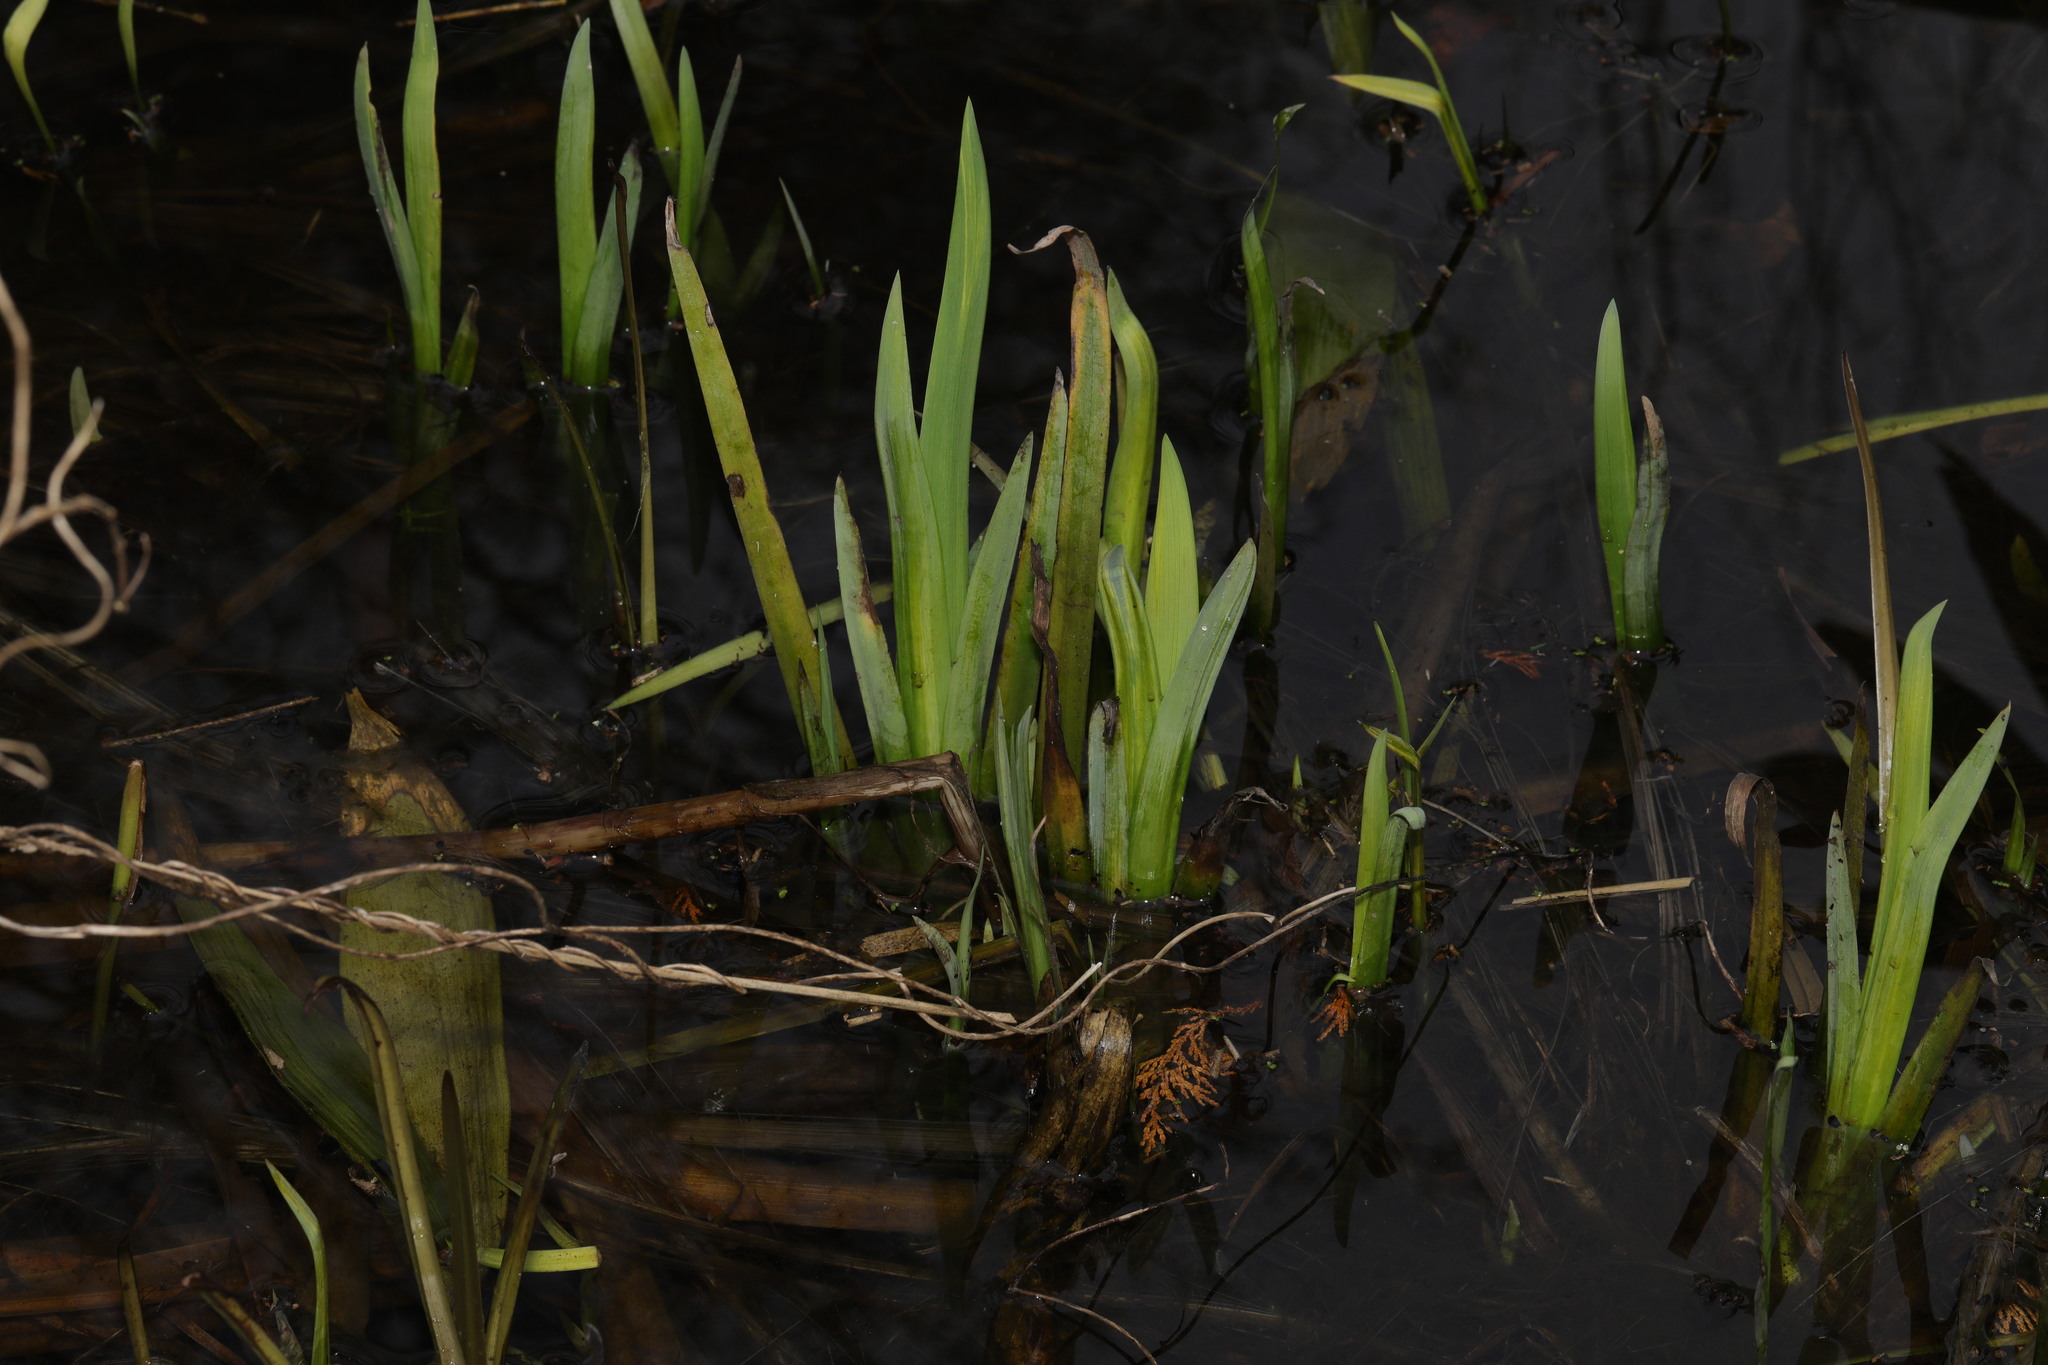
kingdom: Plantae
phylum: Tracheophyta
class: Liliopsida
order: Asparagales
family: Iridaceae
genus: Iris
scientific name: Iris pseudacorus
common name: Yellow flag
